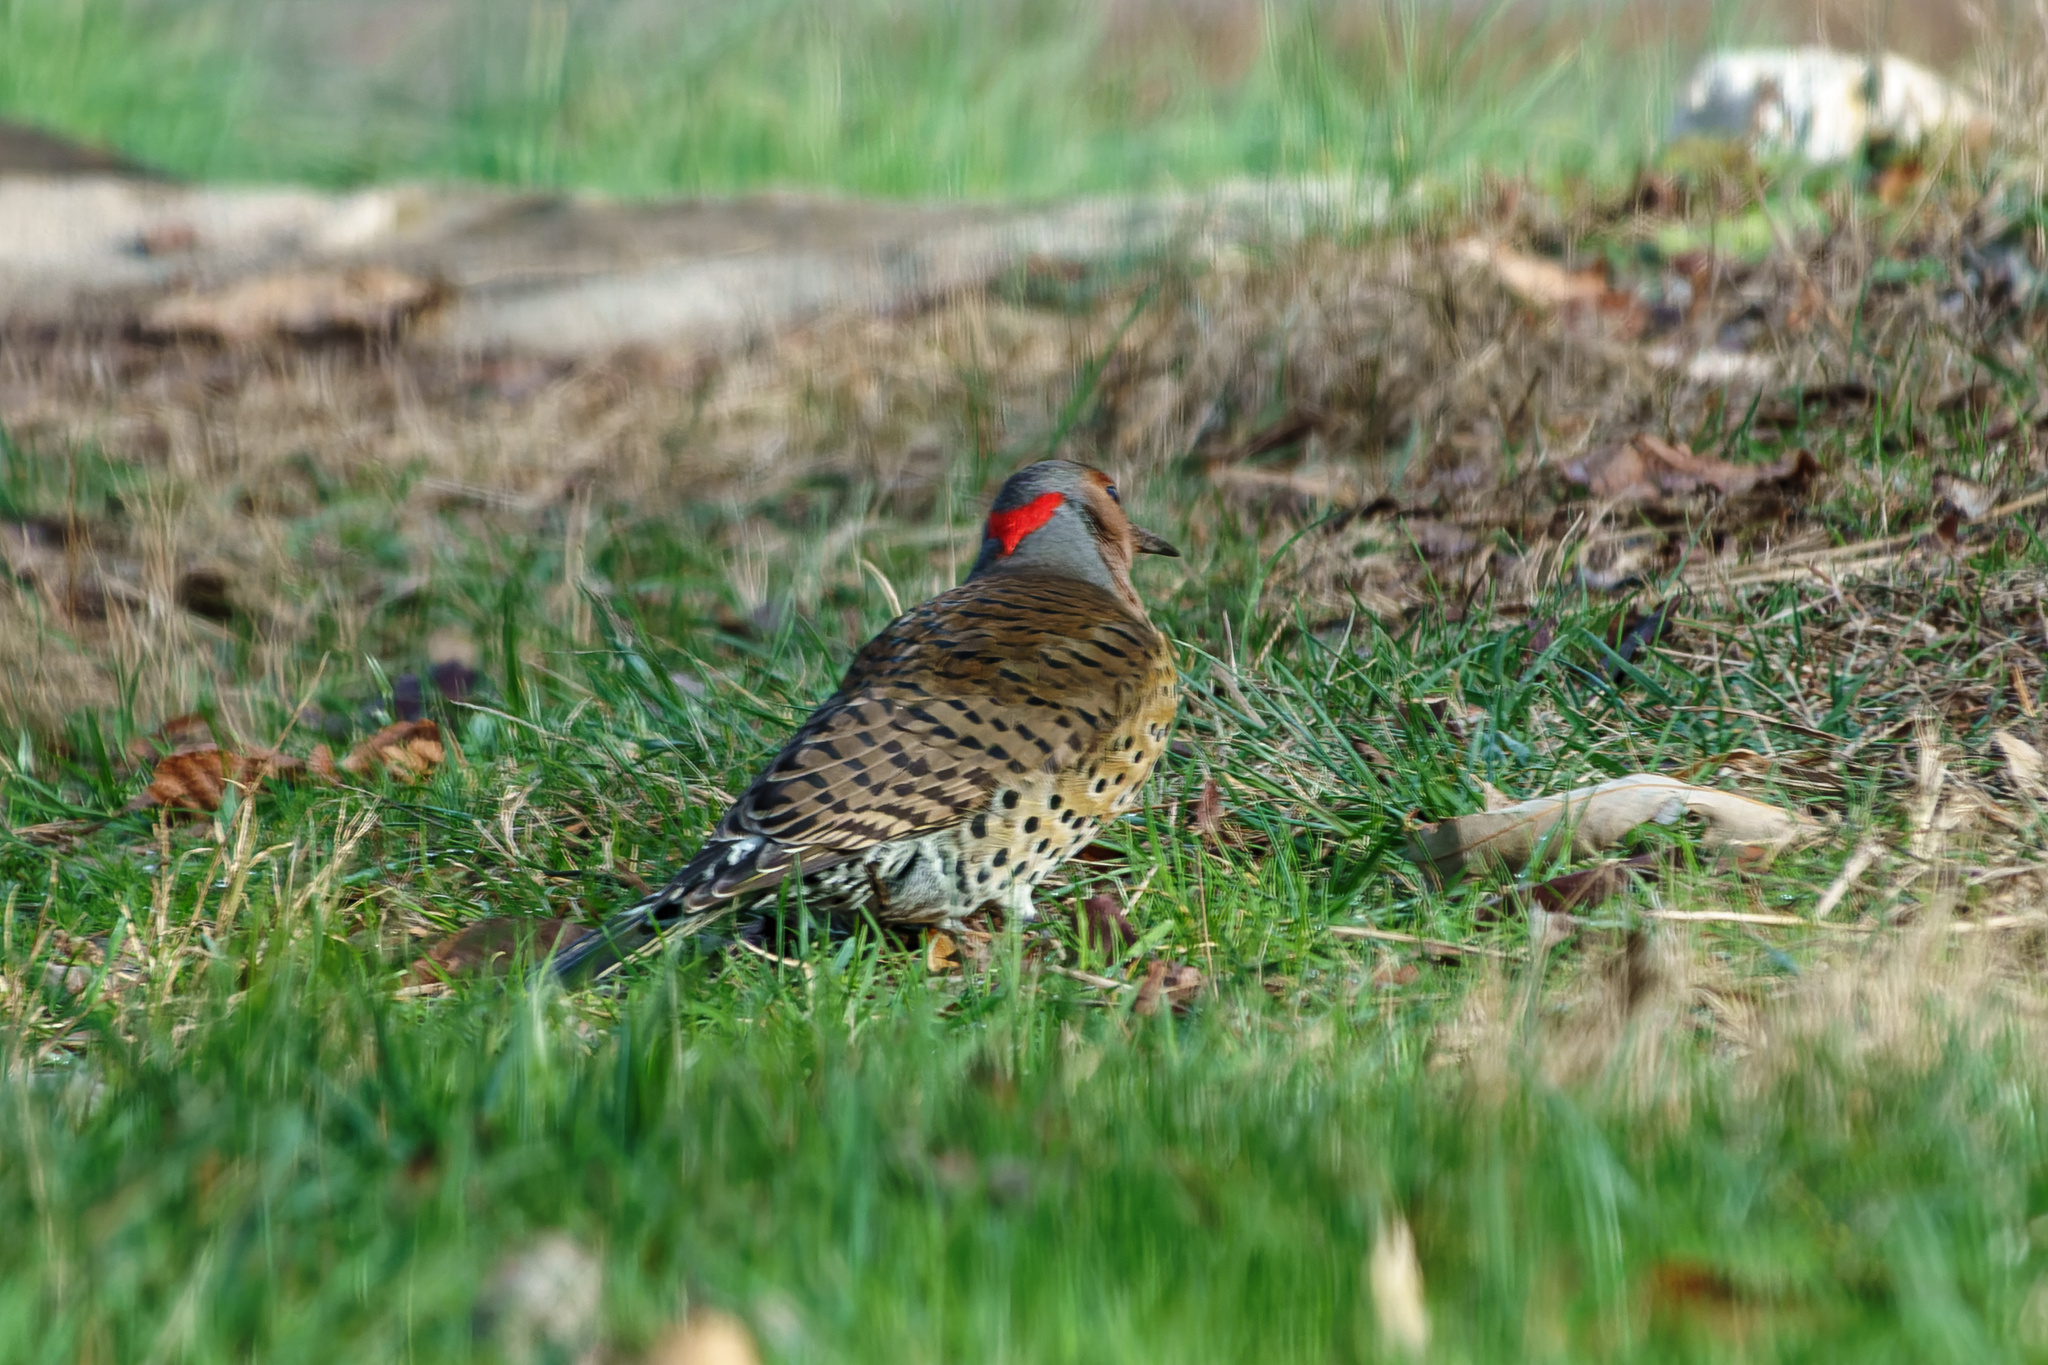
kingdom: Animalia
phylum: Chordata
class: Aves
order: Piciformes
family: Picidae
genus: Colaptes
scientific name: Colaptes auratus
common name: Northern flicker
